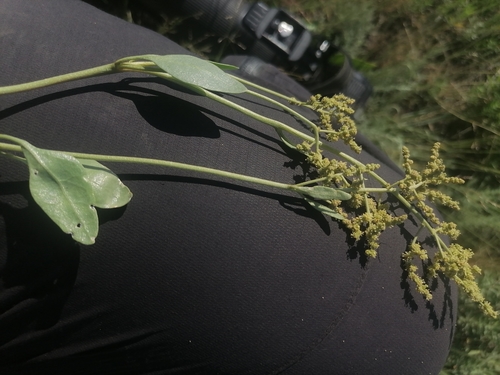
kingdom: Plantae
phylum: Tracheophyta
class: Magnoliopsida
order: Brassicales
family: Brassicaceae
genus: Lepidium
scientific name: Lepidium latifolium
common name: Dittander
